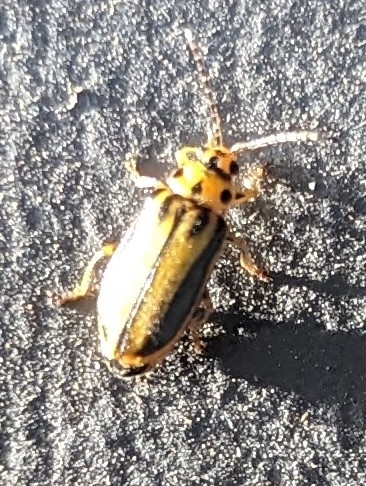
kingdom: Animalia
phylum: Arthropoda
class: Insecta
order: Coleoptera
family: Chrysomelidae
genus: Xanthogaleruca
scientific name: Xanthogaleruca luteola
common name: Elm leaf beetle
